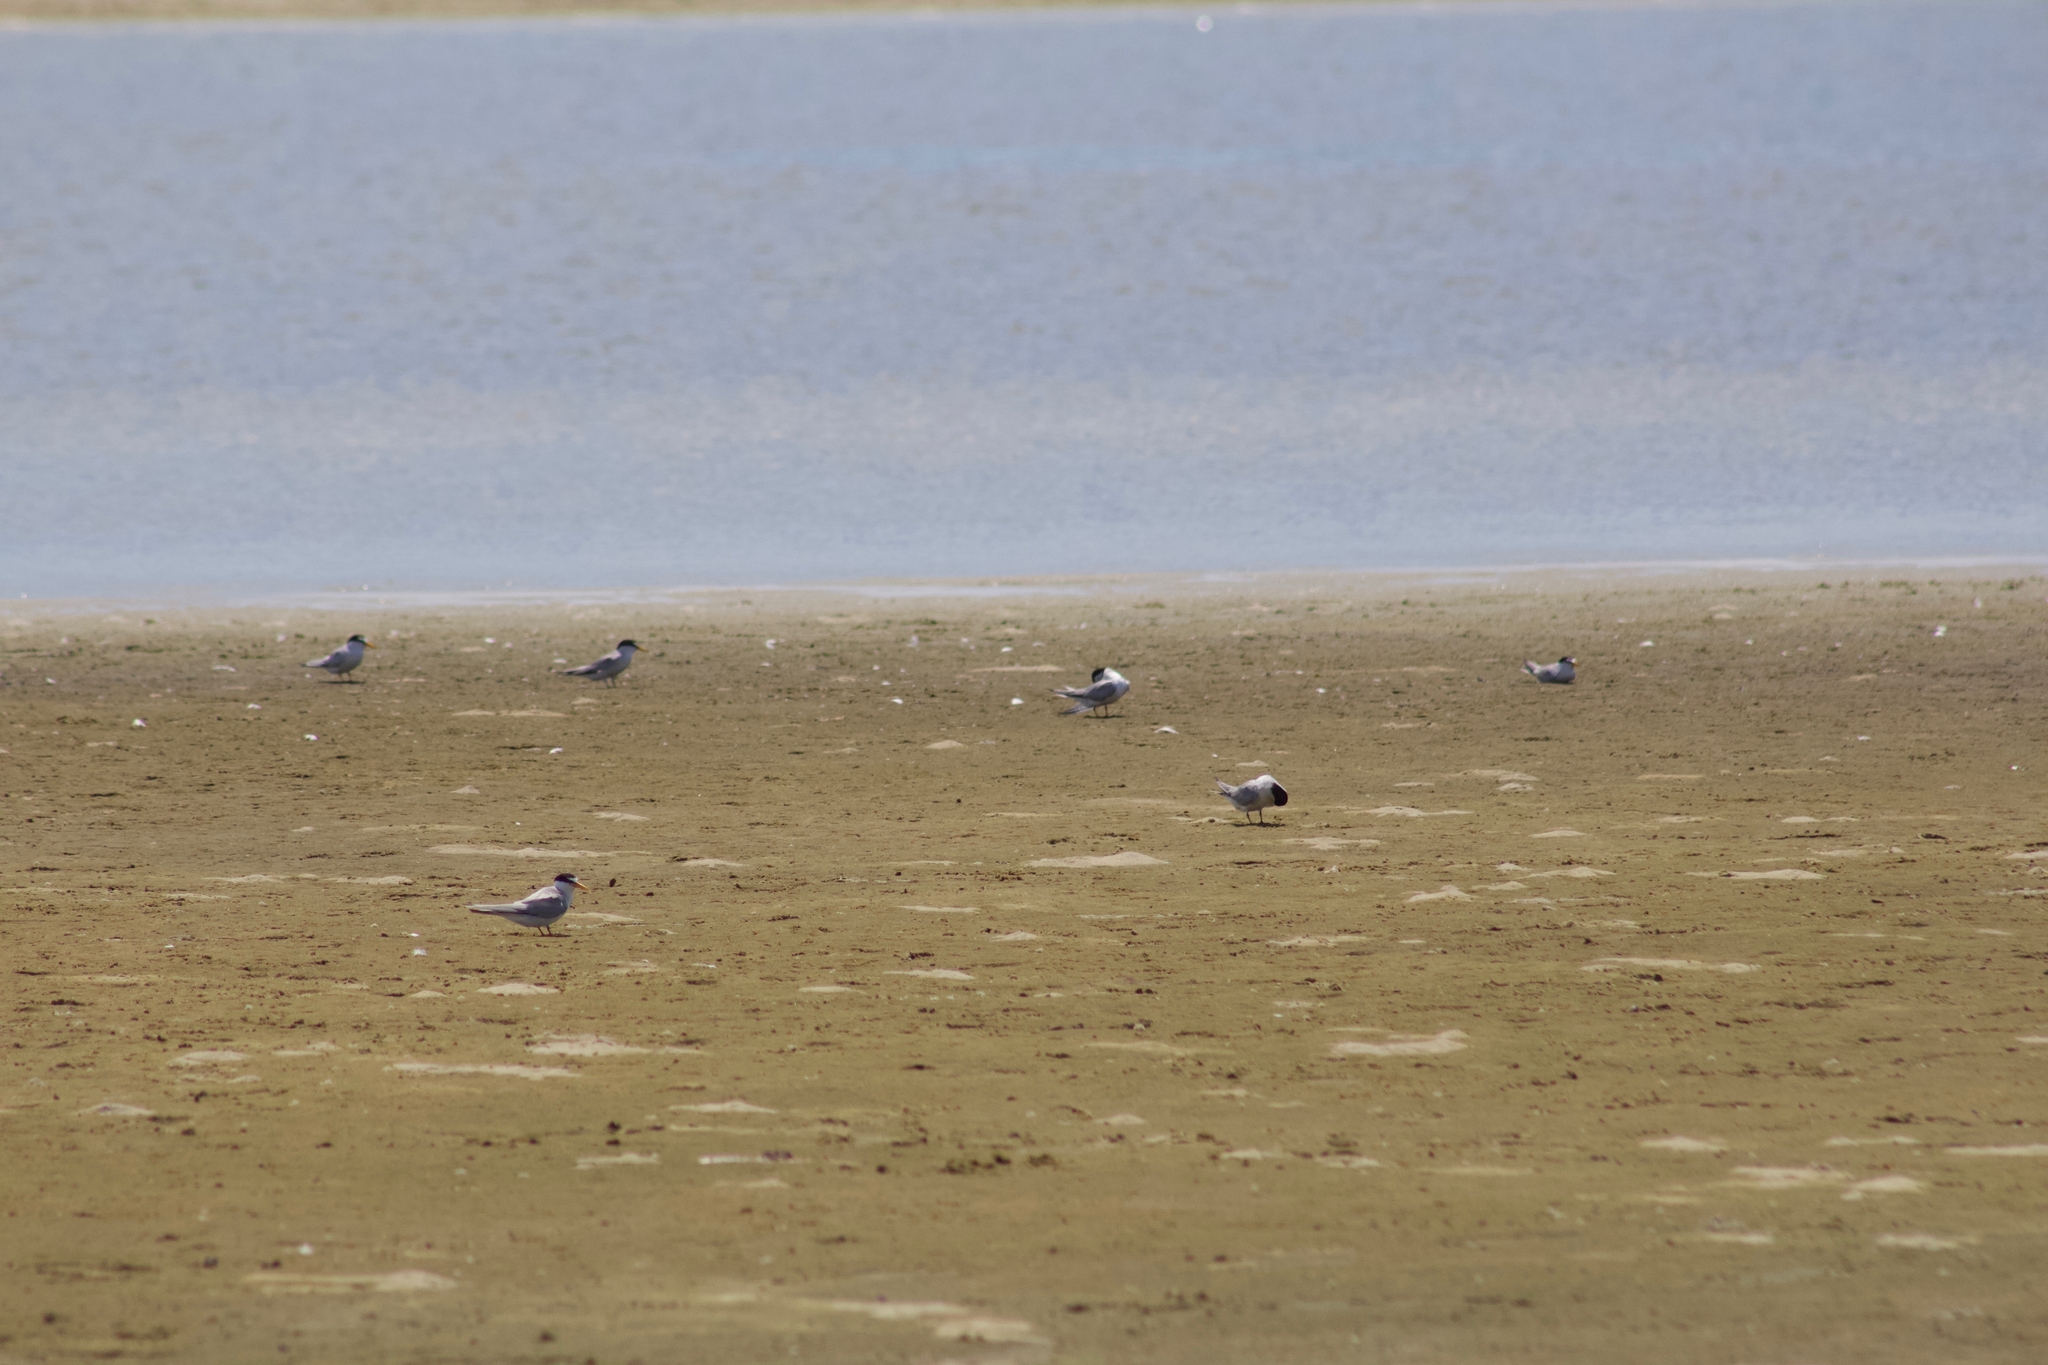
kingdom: Animalia
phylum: Chordata
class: Aves
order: Charadriiformes
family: Laridae
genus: Sternula
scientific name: Sternula antillarum
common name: Least tern
